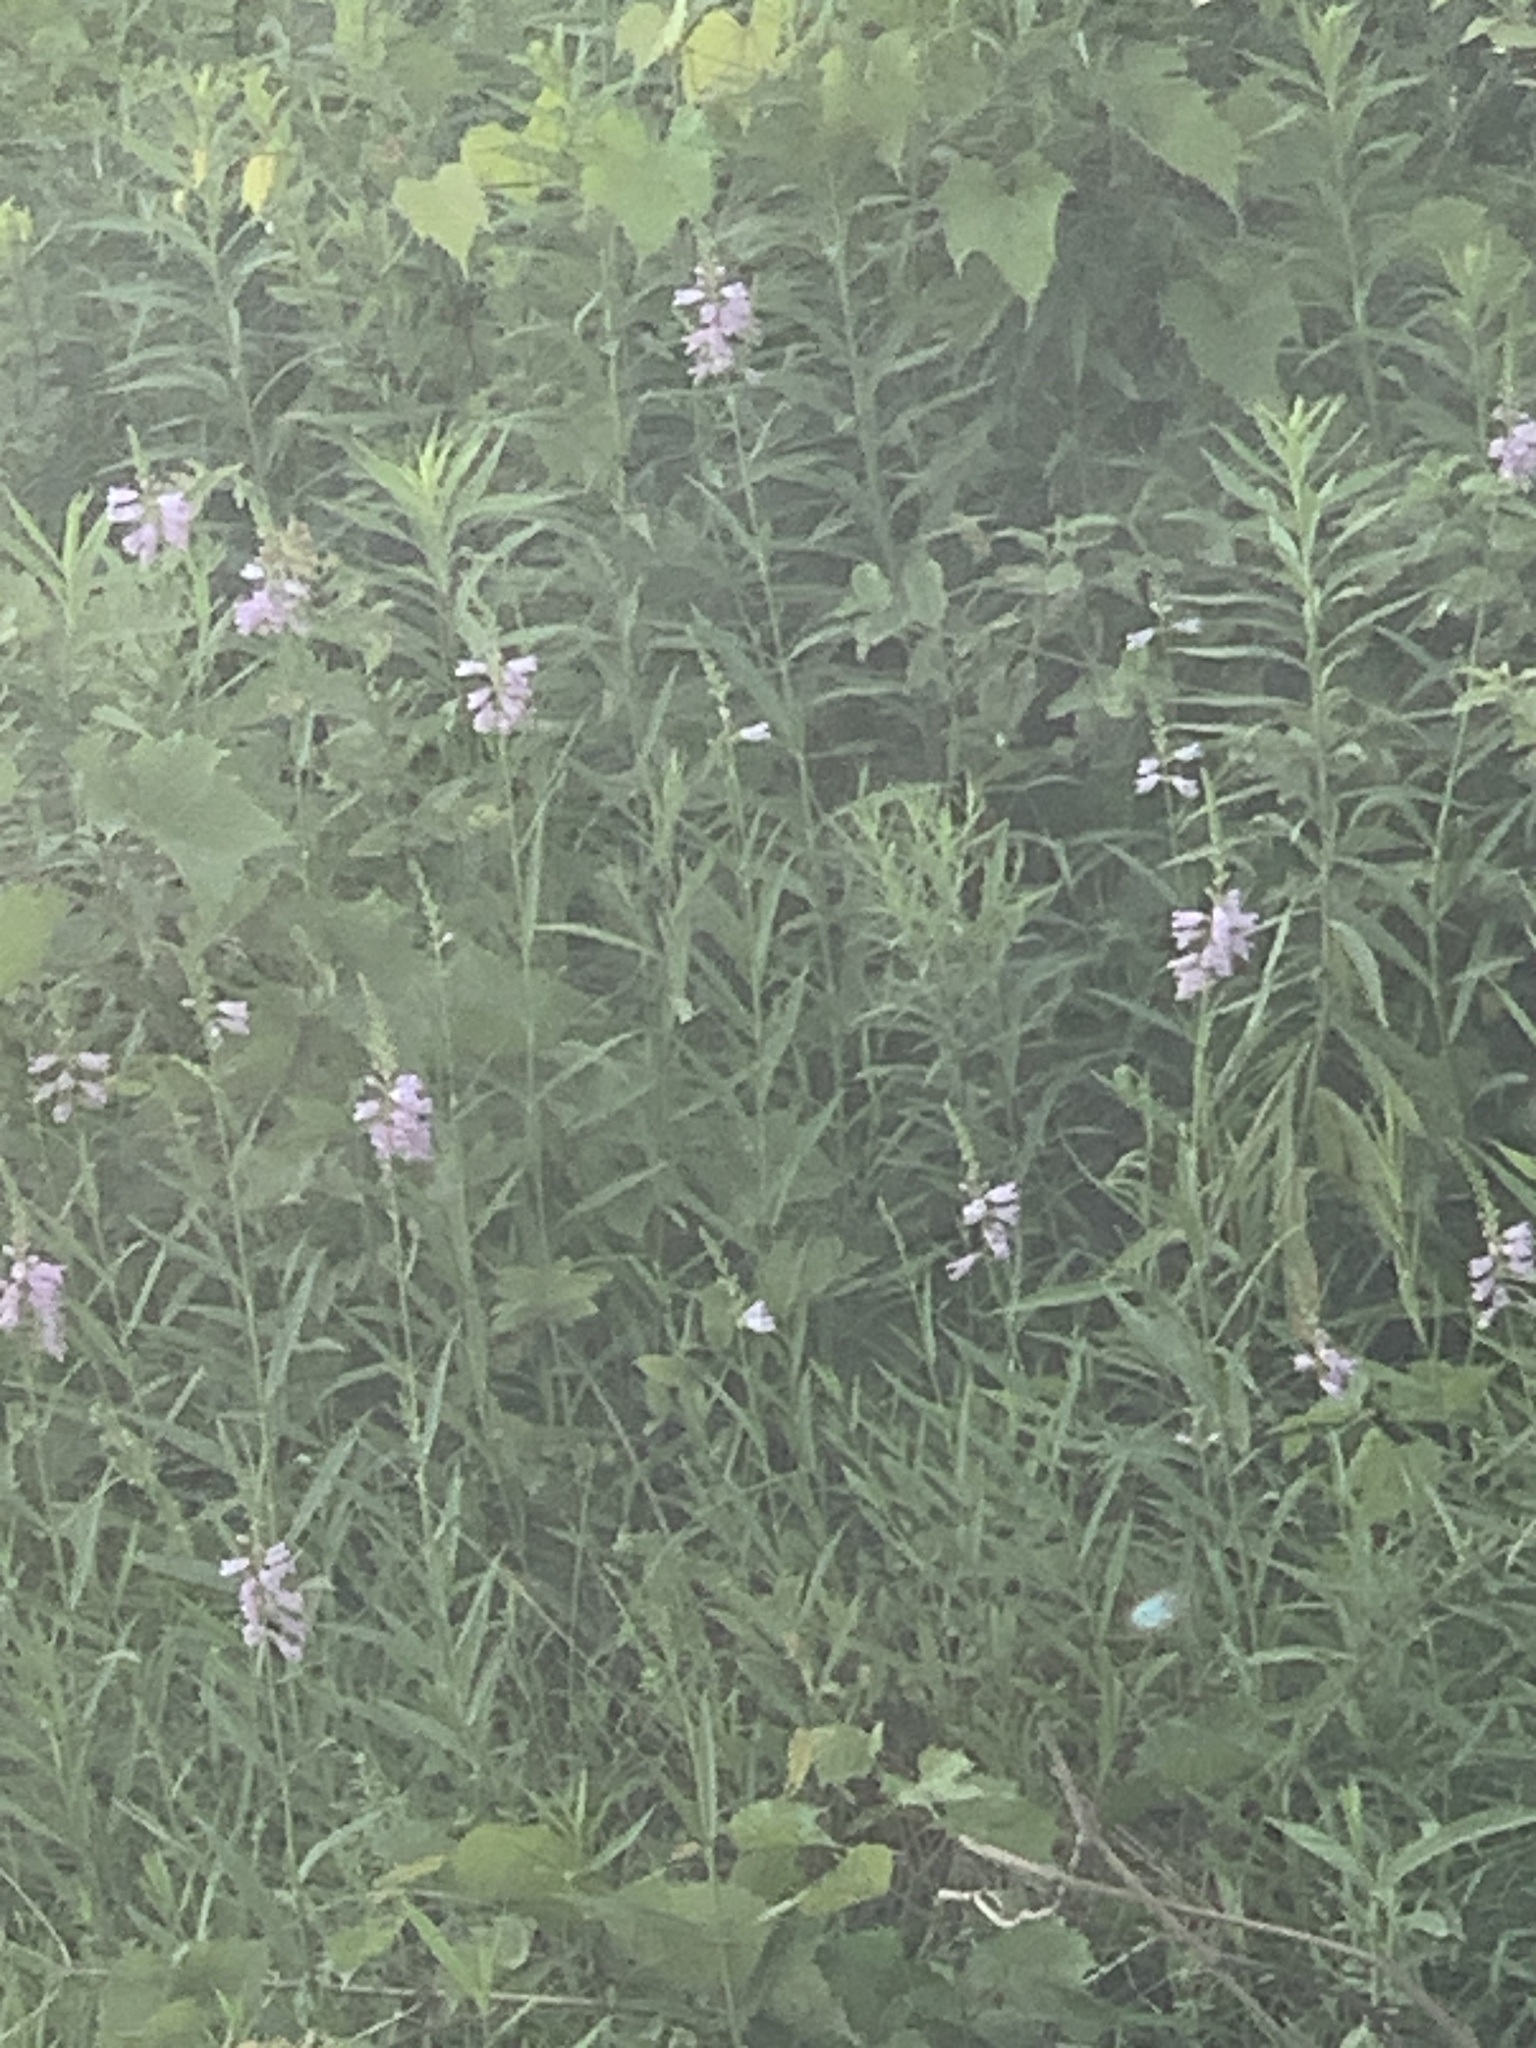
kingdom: Plantae
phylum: Tracheophyta
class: Magnoliopsida
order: Lamiales
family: Lamiaceae
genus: Physostegia
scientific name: Physostegia virginiana
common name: Obedient-plant
